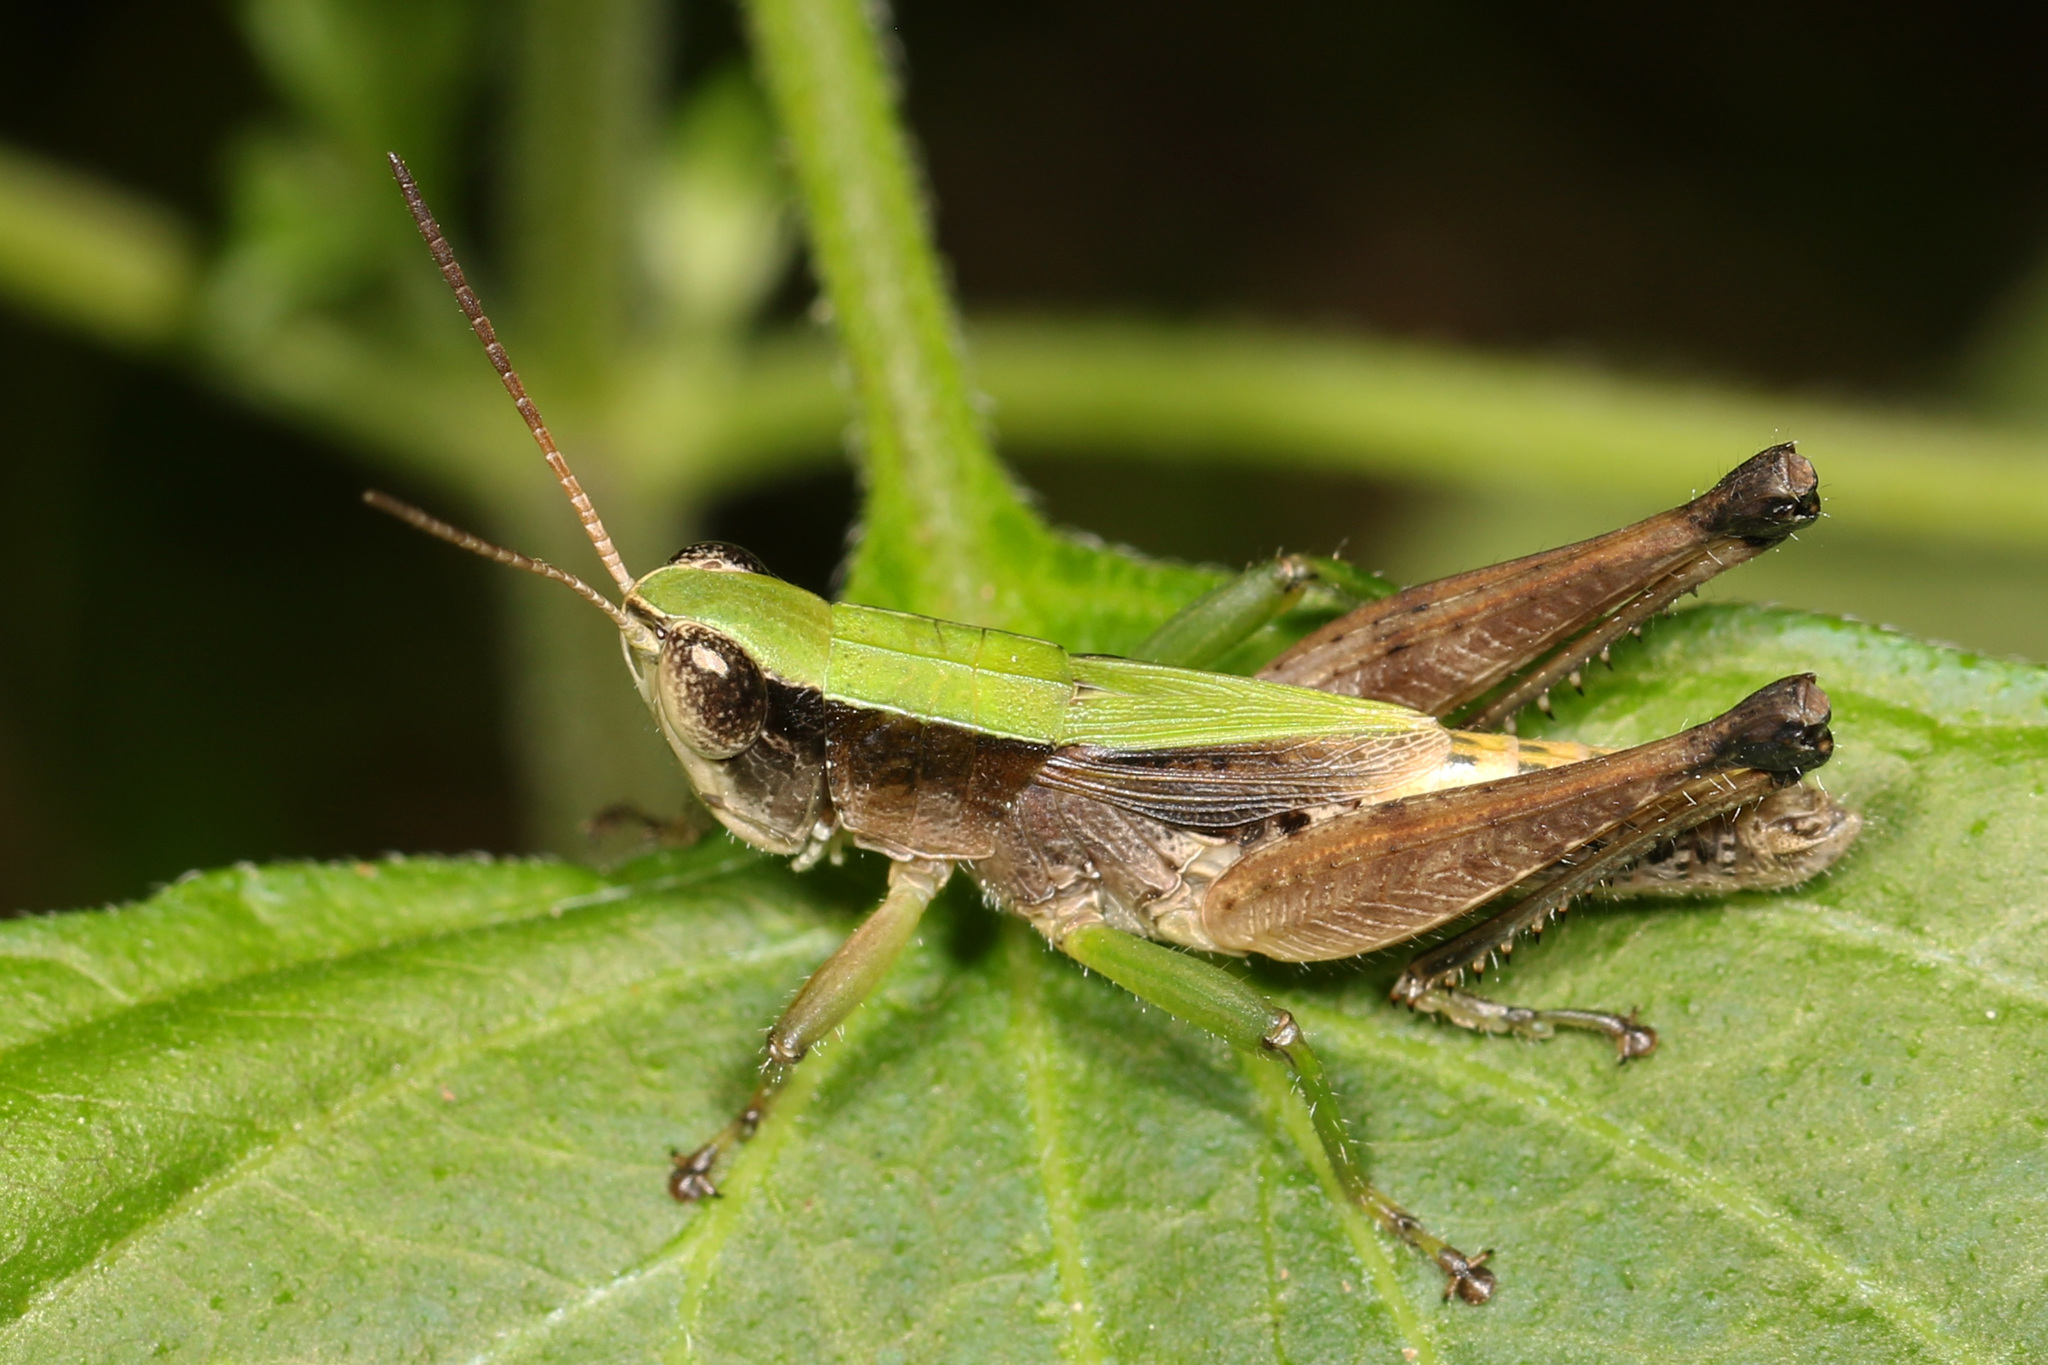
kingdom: Animalia
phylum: Arthropoda
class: Insecta
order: Orthoptera
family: Acrididae
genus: Dichromorpha
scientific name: Dichromorpha viridis
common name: Short-winged green grasshopper
